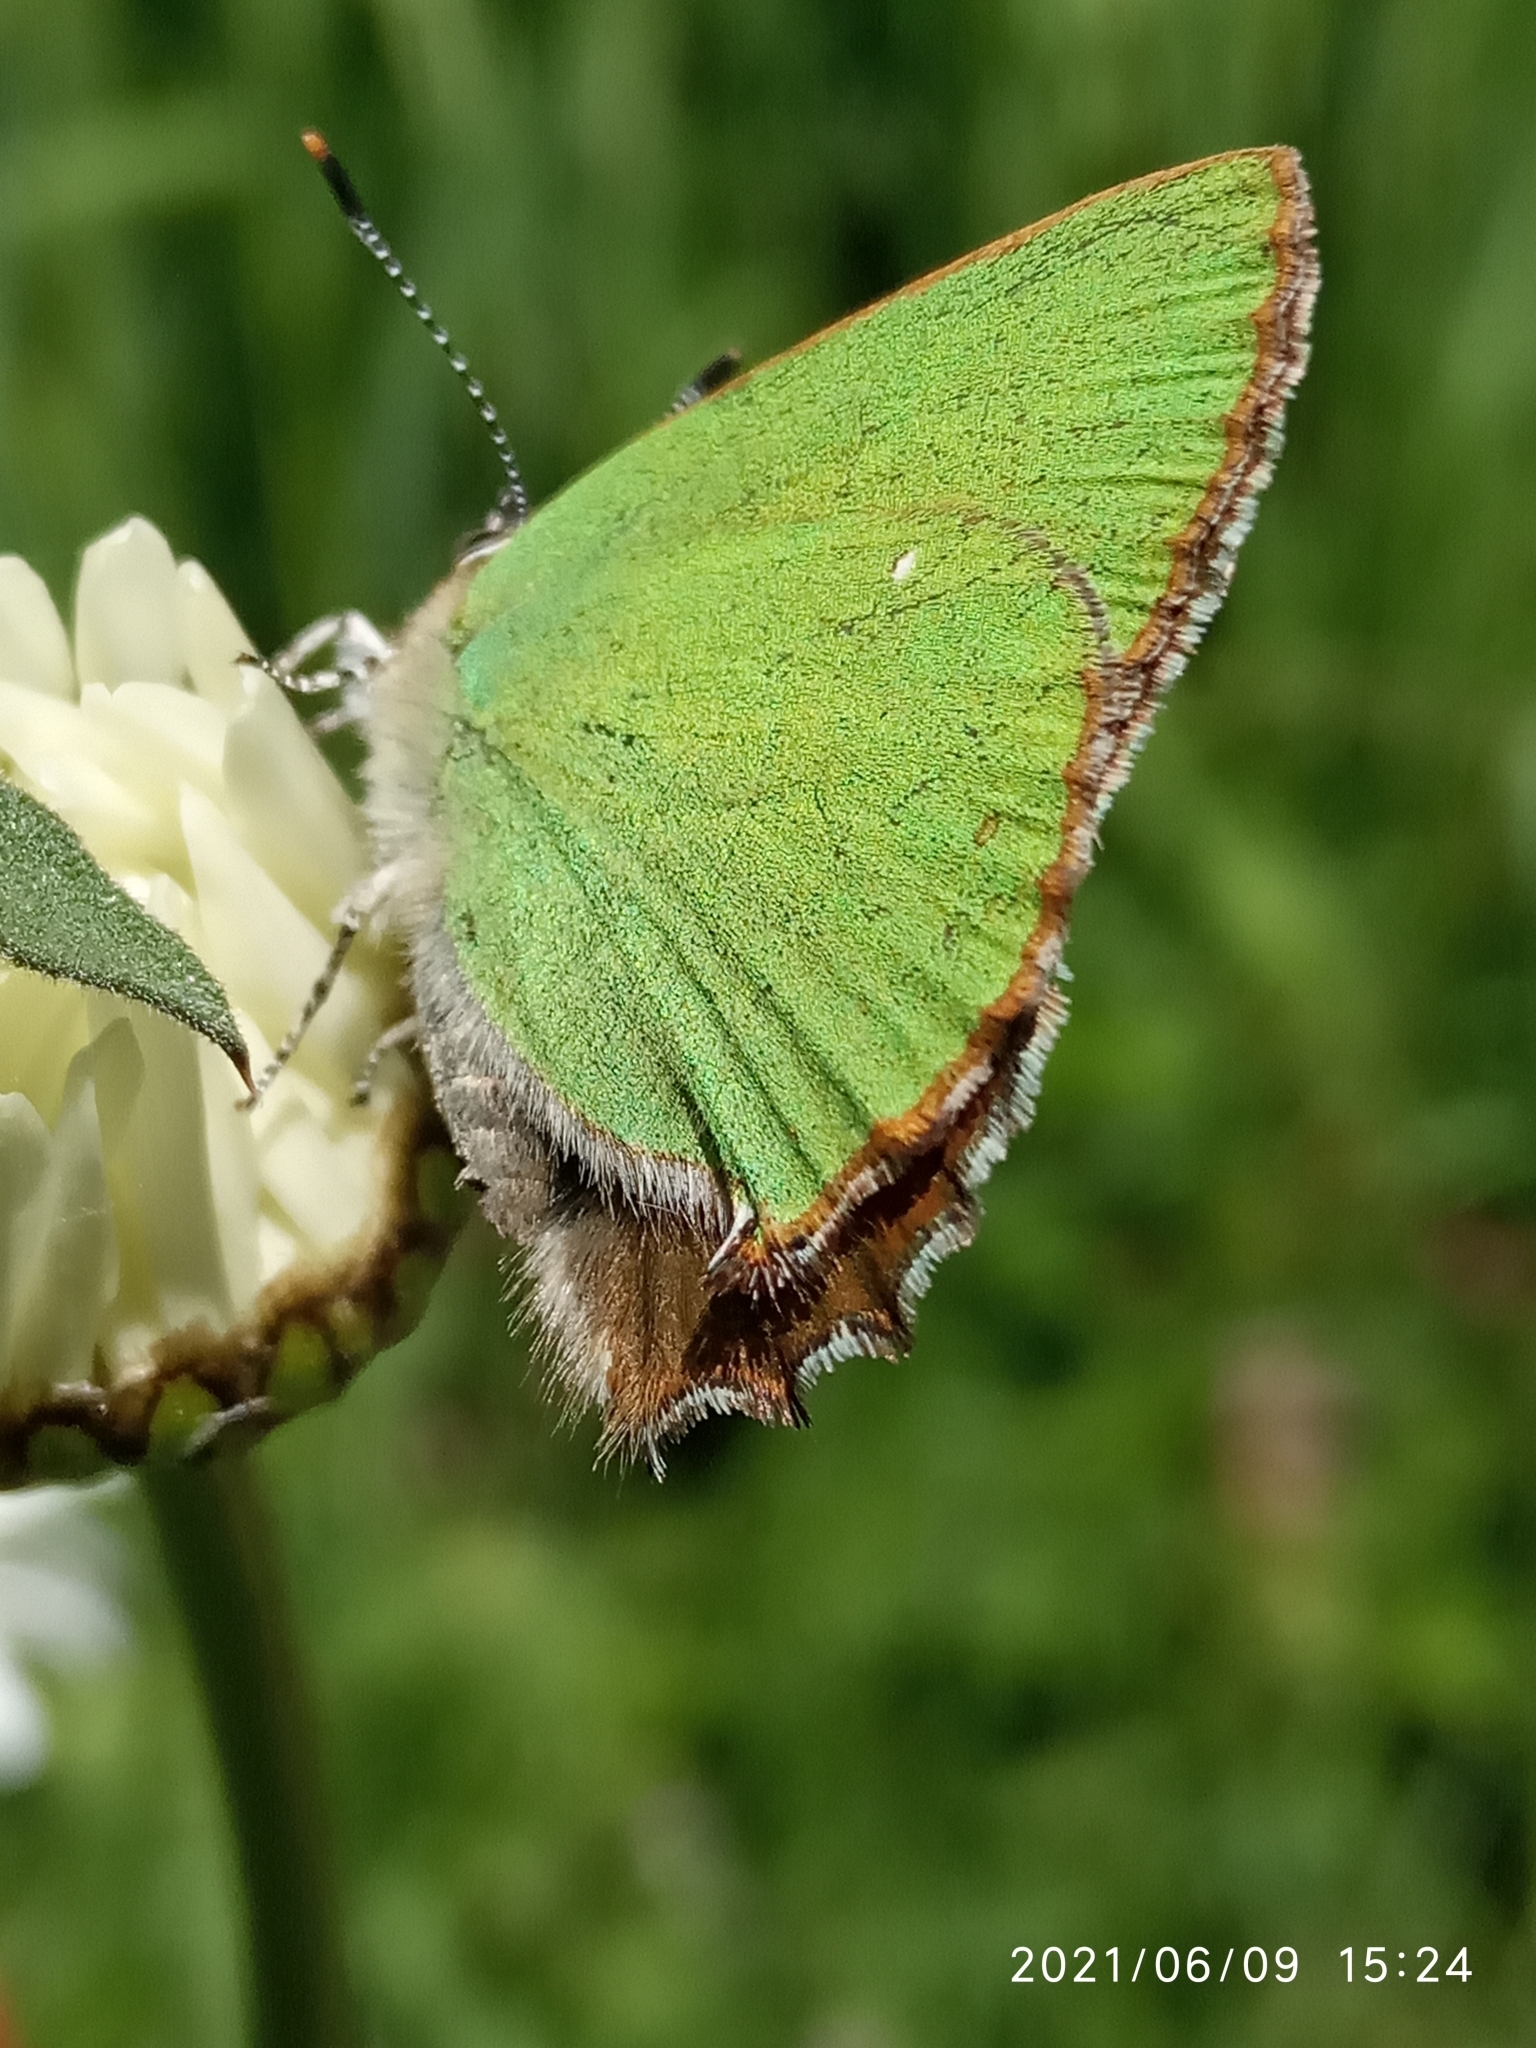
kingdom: Animalia
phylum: Arthropoda
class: Insecta
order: Lepidoptera
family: Lycaenidae
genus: Callophrys
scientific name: Callophrys rubi
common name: Green hairstreak
